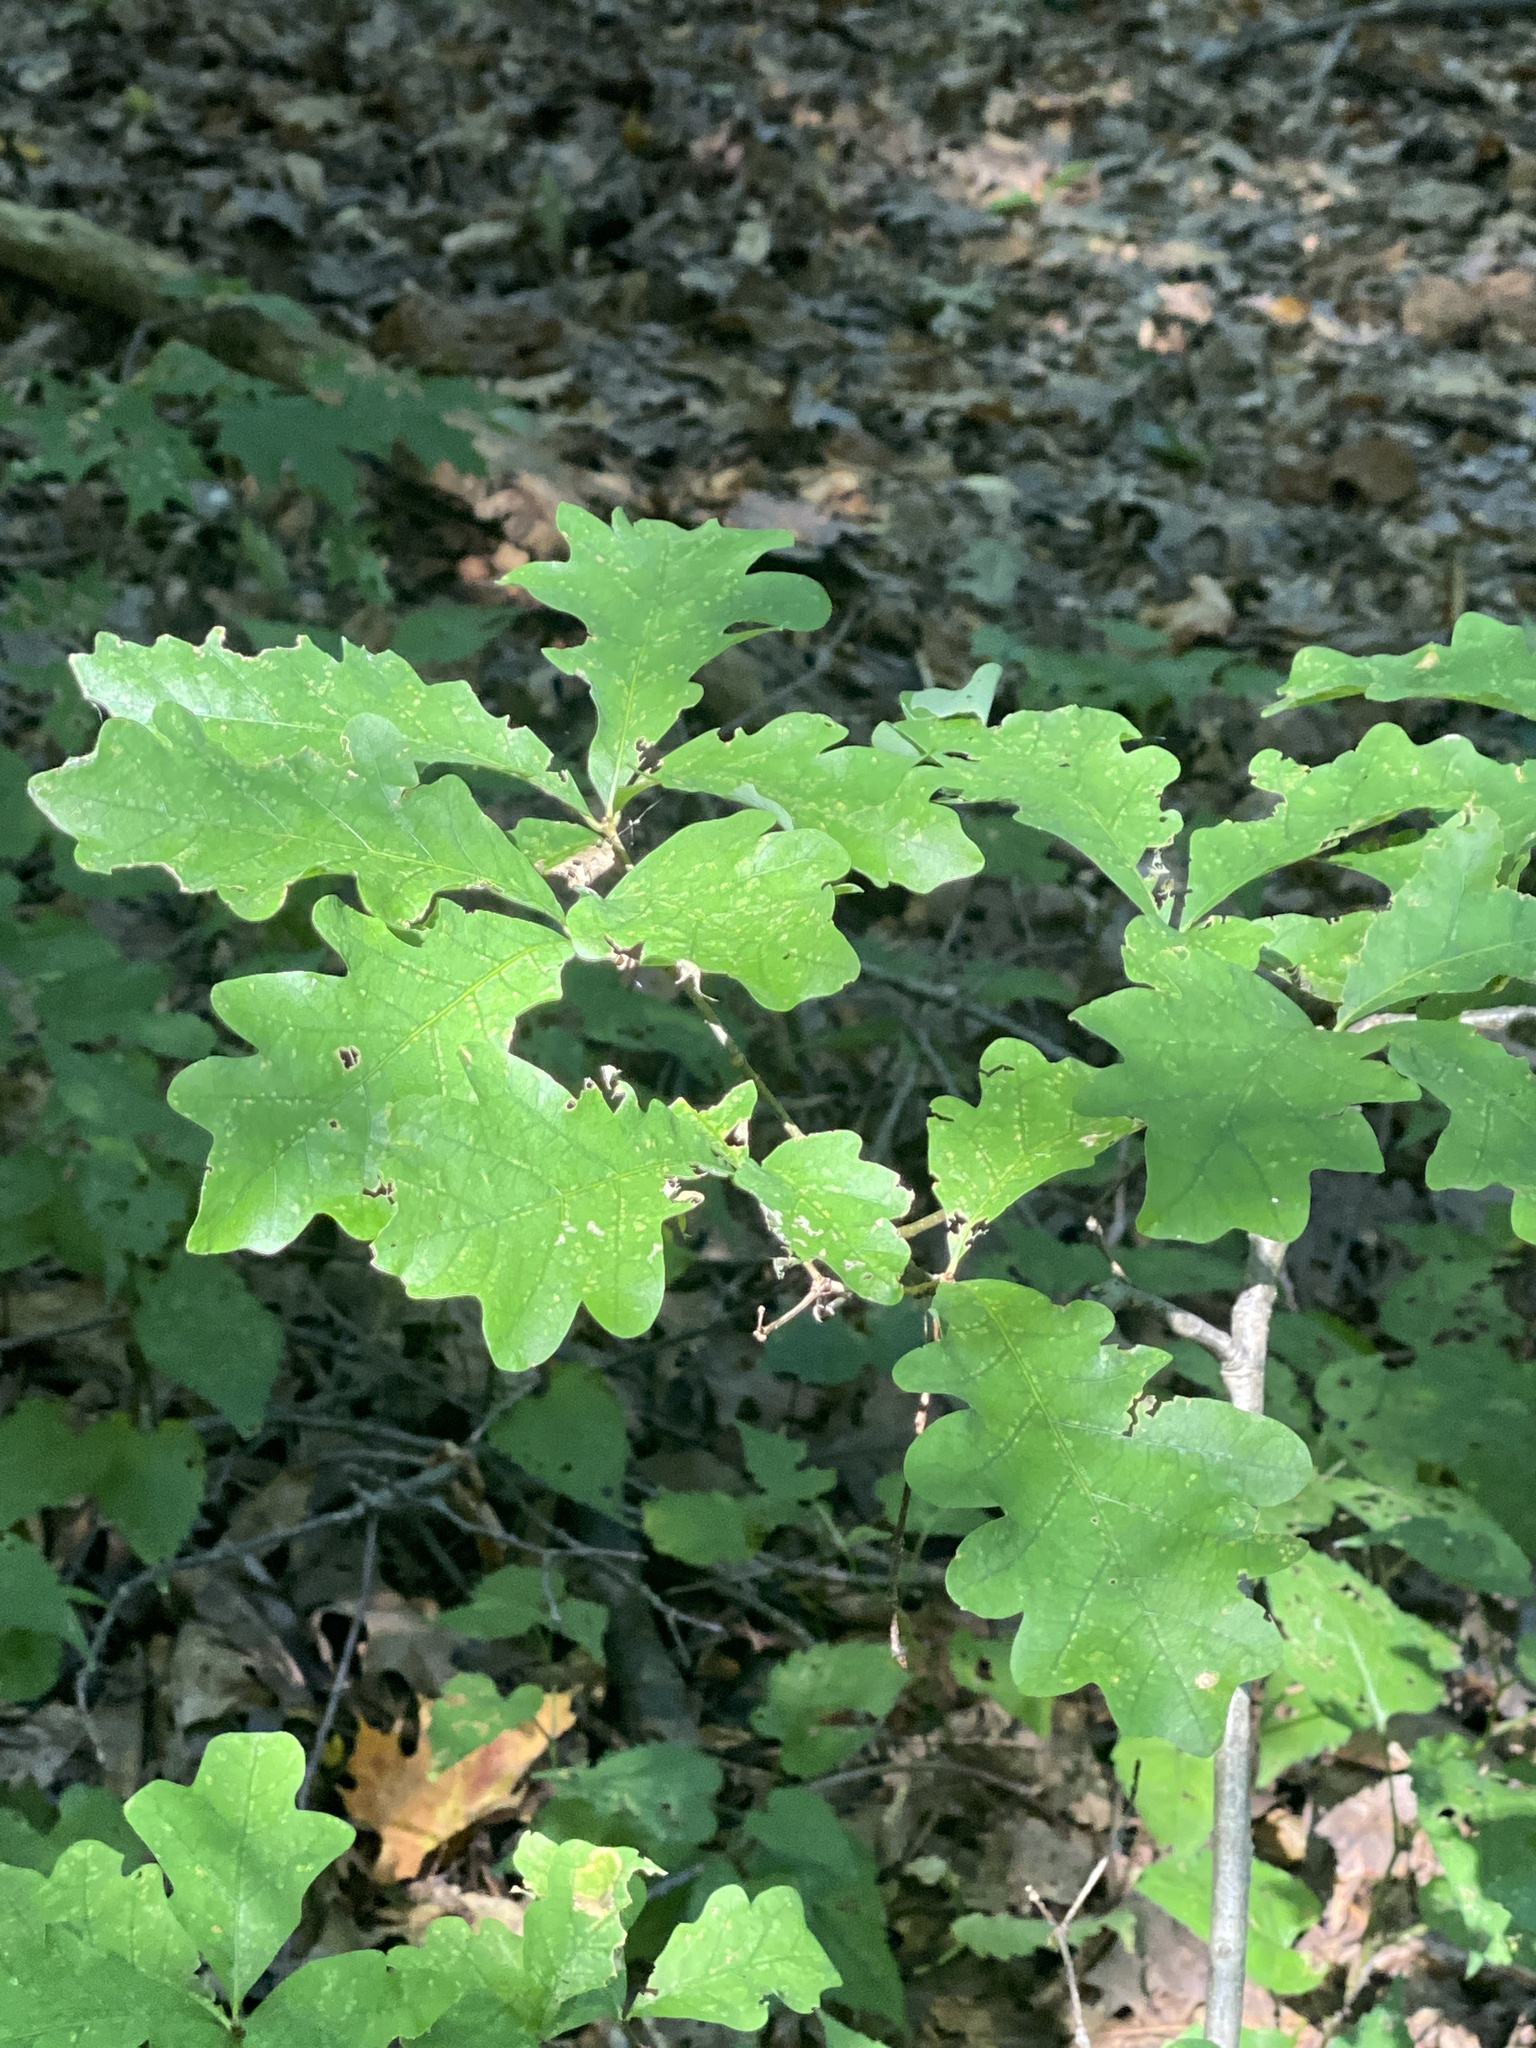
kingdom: Plantae
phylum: Tracheophyta
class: Magnoliopsida
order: Fagales
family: Fagaceae
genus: Quercus
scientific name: Quercus alba
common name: White oak
